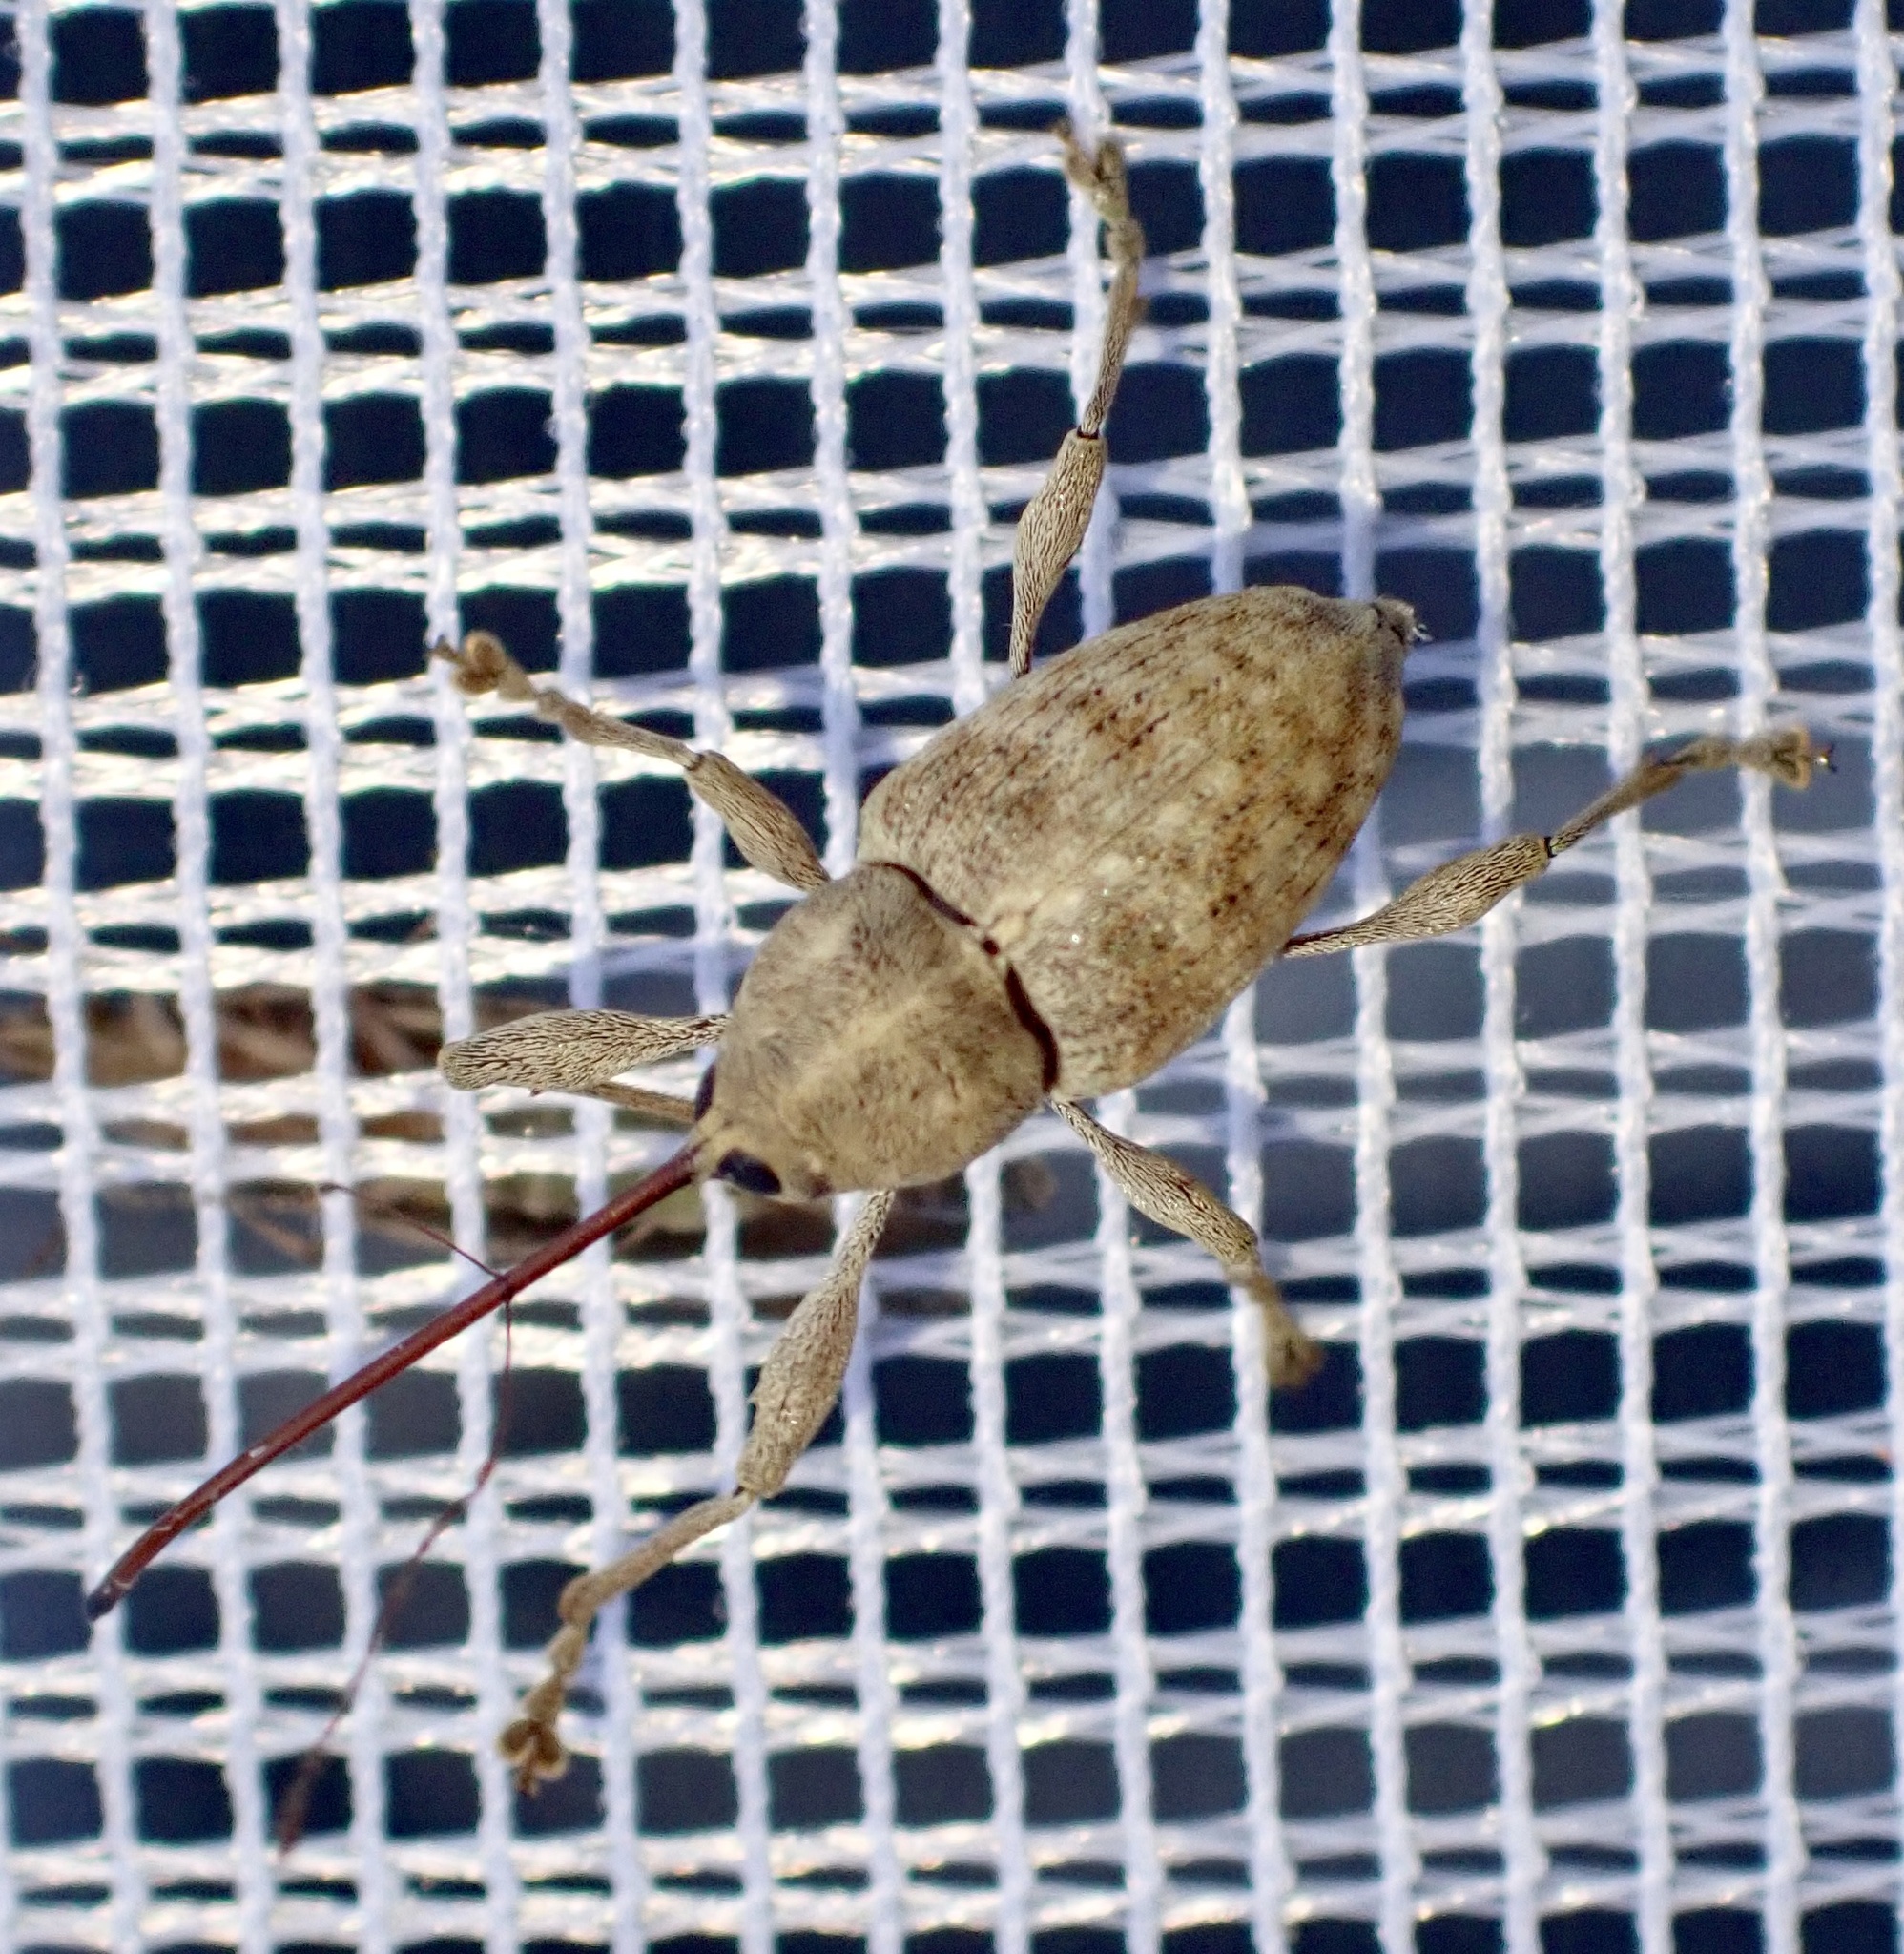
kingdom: Animalia
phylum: Arthropoda
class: Insecta
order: Coleoptera
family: Curculionidae
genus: Curculio
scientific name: Curculio elephas
